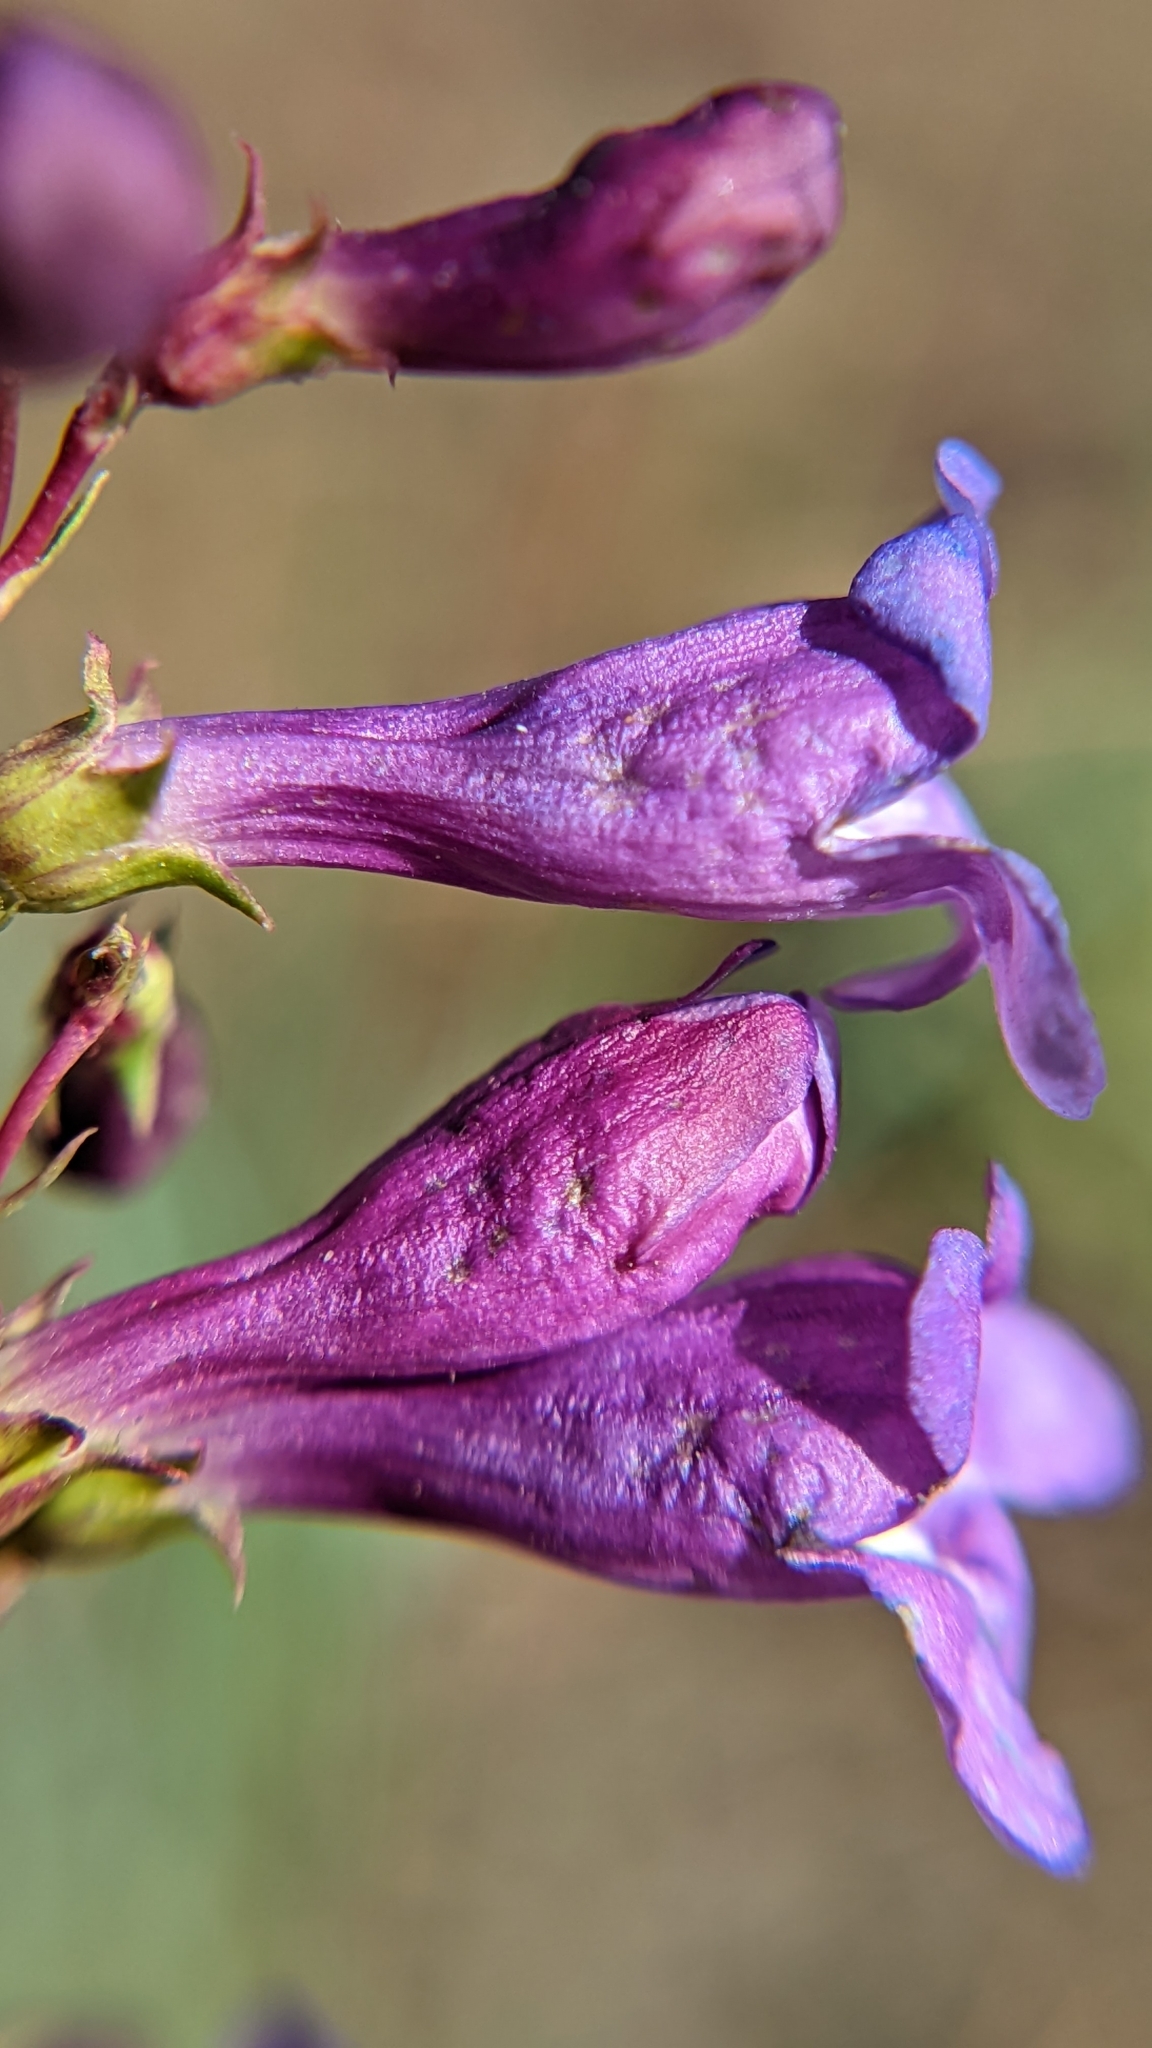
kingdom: Plantae
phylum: Tracheophyta
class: Magnoliopsida
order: Lamiales
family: Plantaginaceae
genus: Penstemon
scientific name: Penstemon leonardii
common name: Leonard's penstemon
